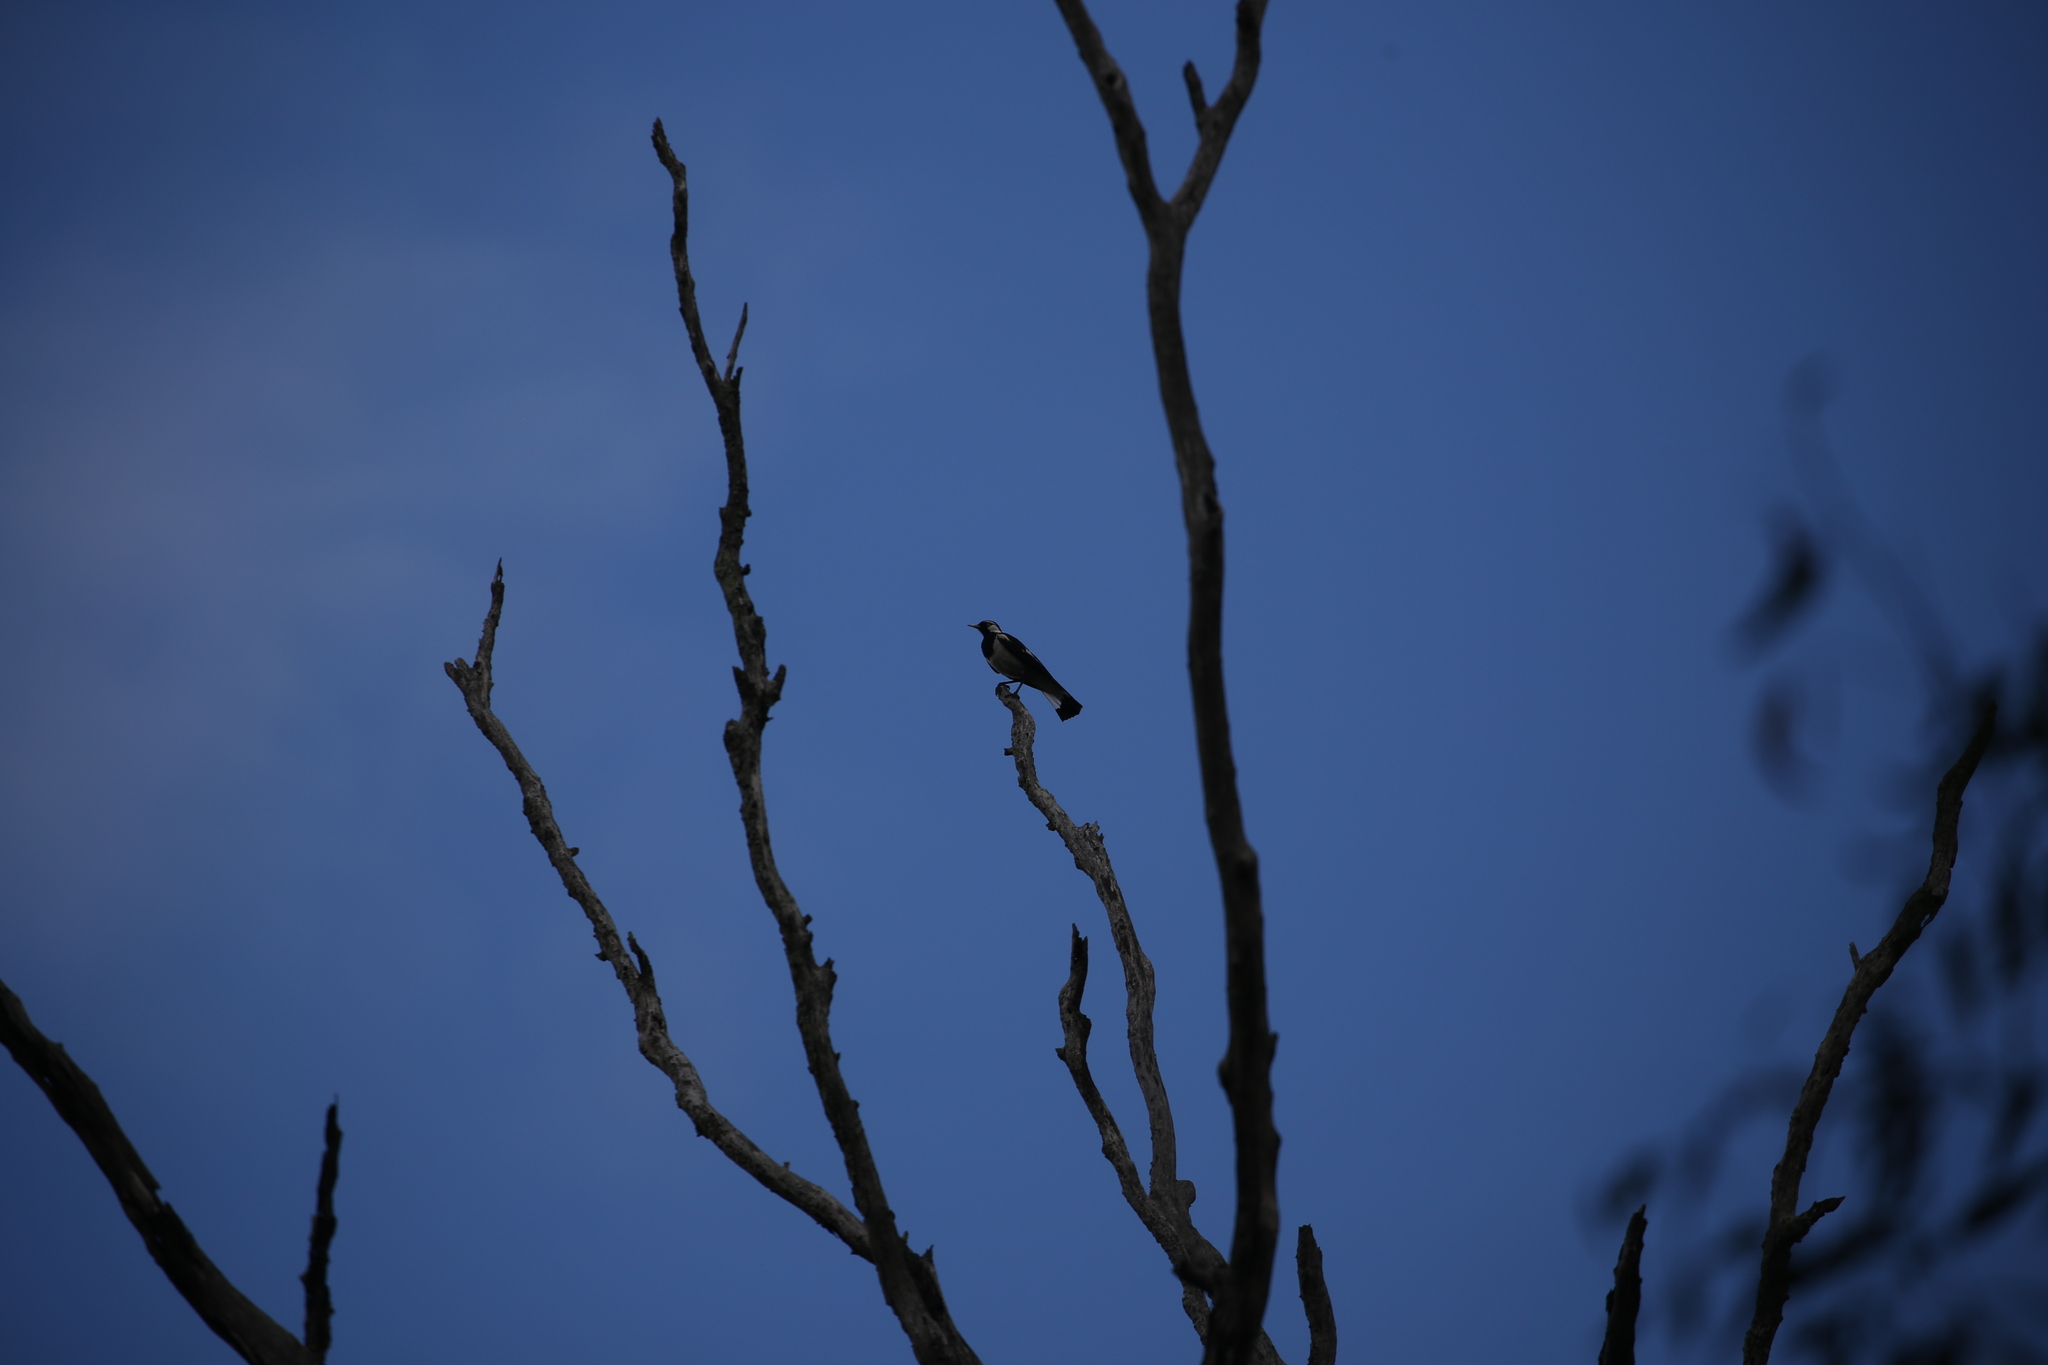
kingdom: Animalia
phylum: Chordata
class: Aves
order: Passeriformes
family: Monarchidae
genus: Grallina
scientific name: Grallina cyanoleuca
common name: Magpie-lark
